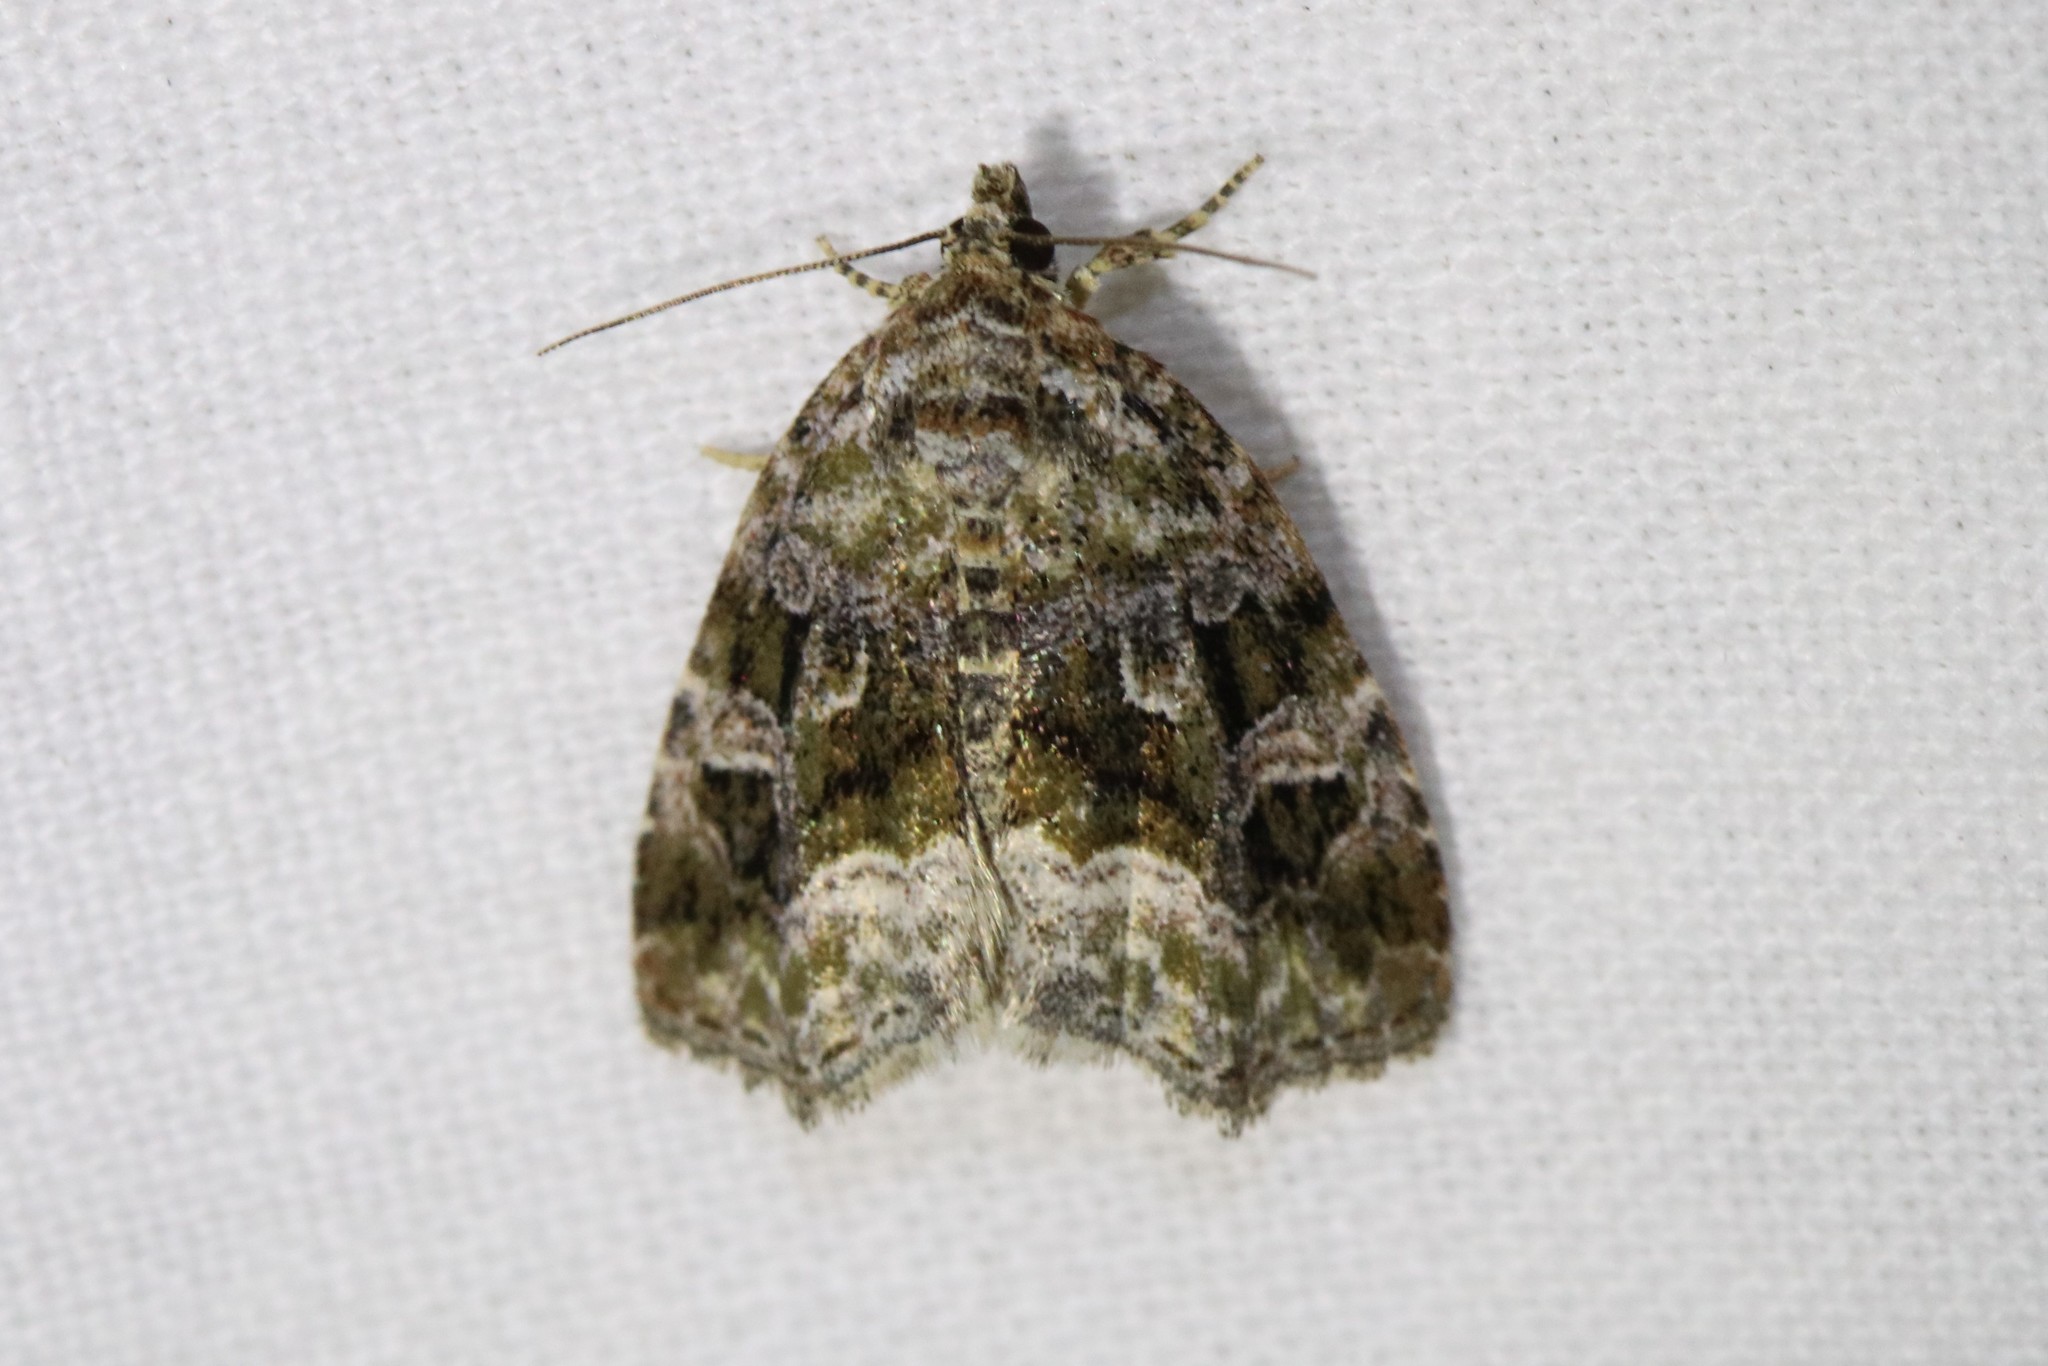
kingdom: Animalia
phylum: Arthropoda
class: Insecta
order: Lepidoptera
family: Noctuidae
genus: Protodeltote
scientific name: Protodeltote muscosula
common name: Large mossy glyph
